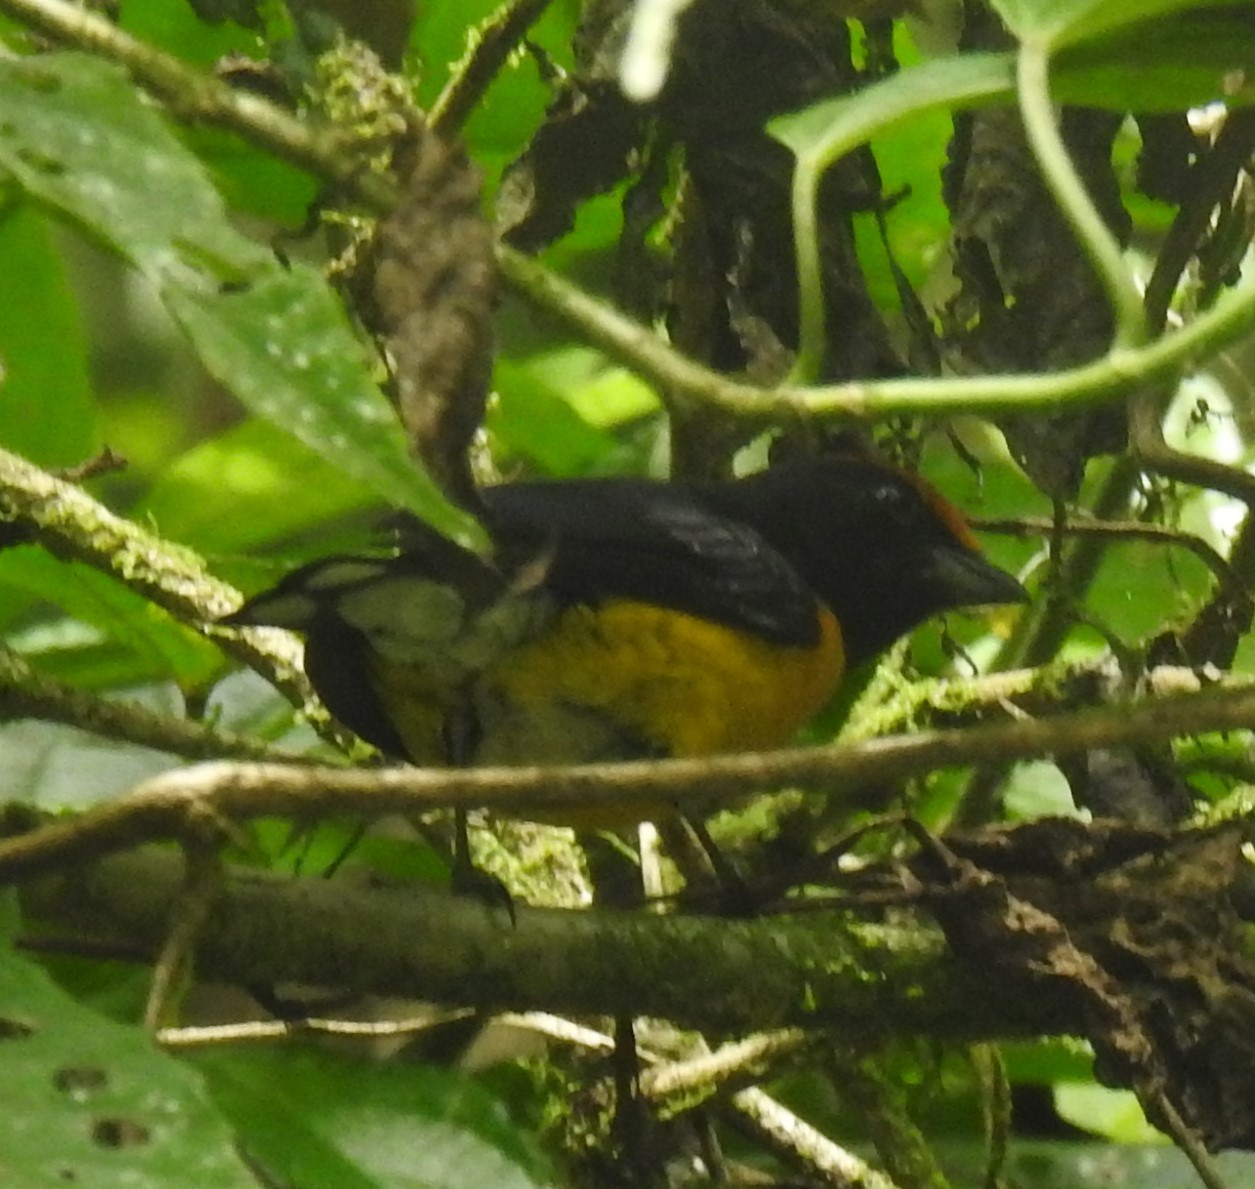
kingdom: Animalia
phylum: Chordata
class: Aves
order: Passeriformes
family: Fringillidae
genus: Euphonia
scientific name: Euphonia anneae
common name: Tawny-capped euphonia
